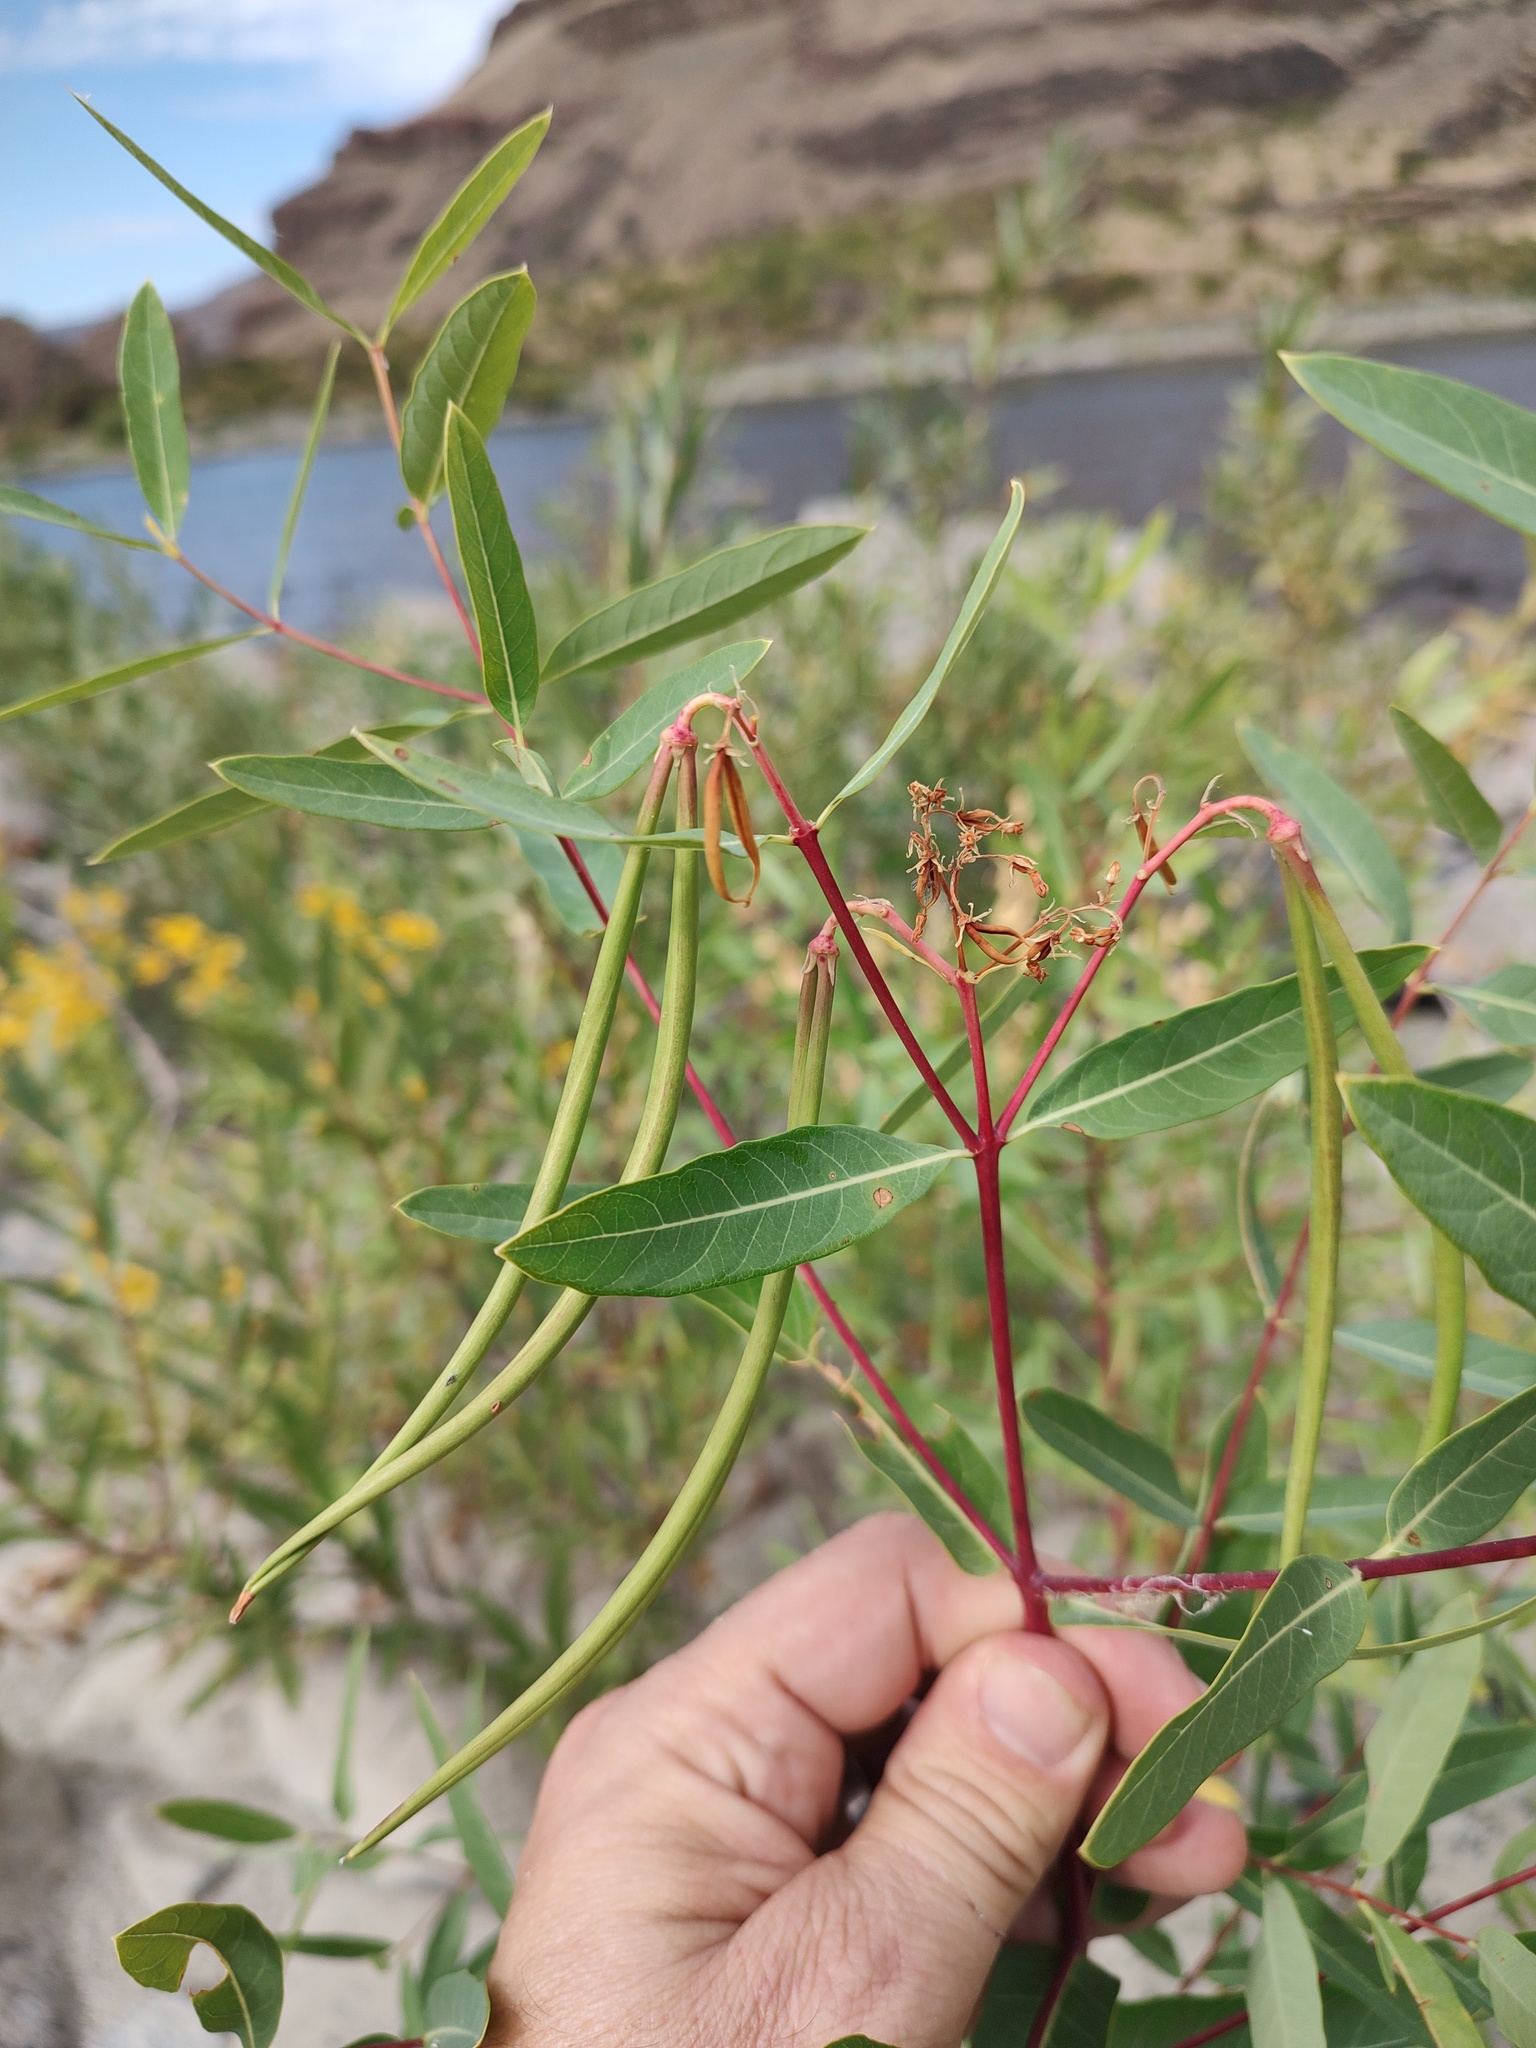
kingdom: Plantae
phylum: Tracheophyta
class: Magnoliopsida
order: Gentianales
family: Apocynaceae
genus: Apocynum
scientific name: Apocynum cannabinum
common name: Hemp dogbane
